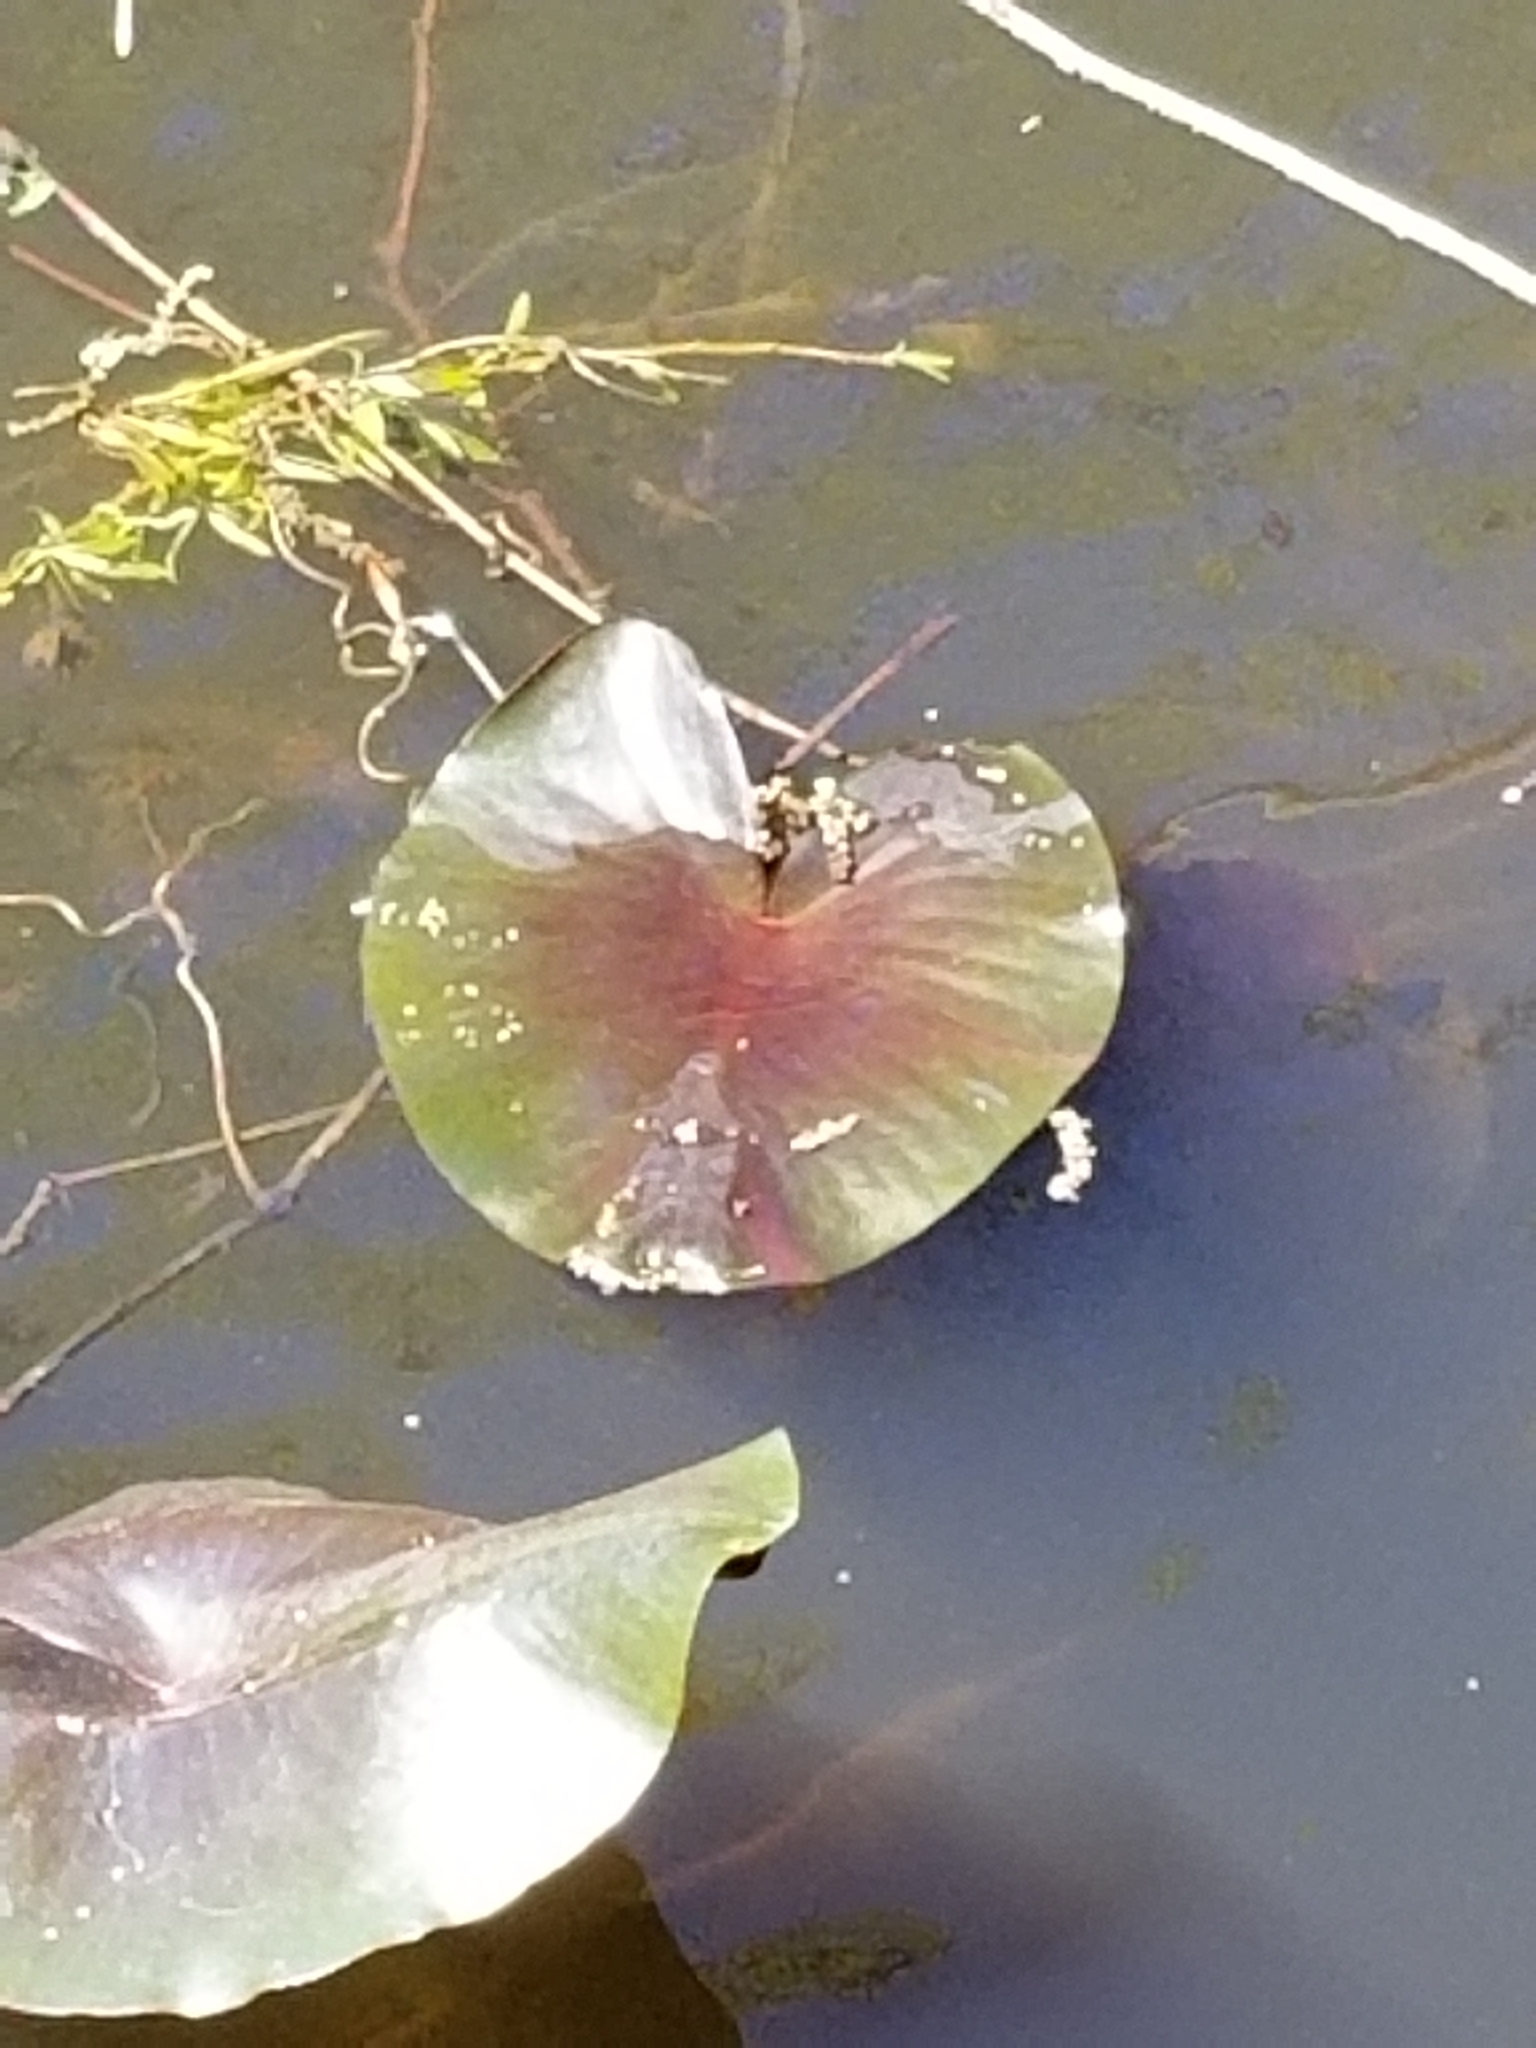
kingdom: Plantae
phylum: Tracheophyta
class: Magnoliopsida
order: Nymphaeales
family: Nymphaeaceae
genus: Nuphar
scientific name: Nuphar advena
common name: Spatter-dock
